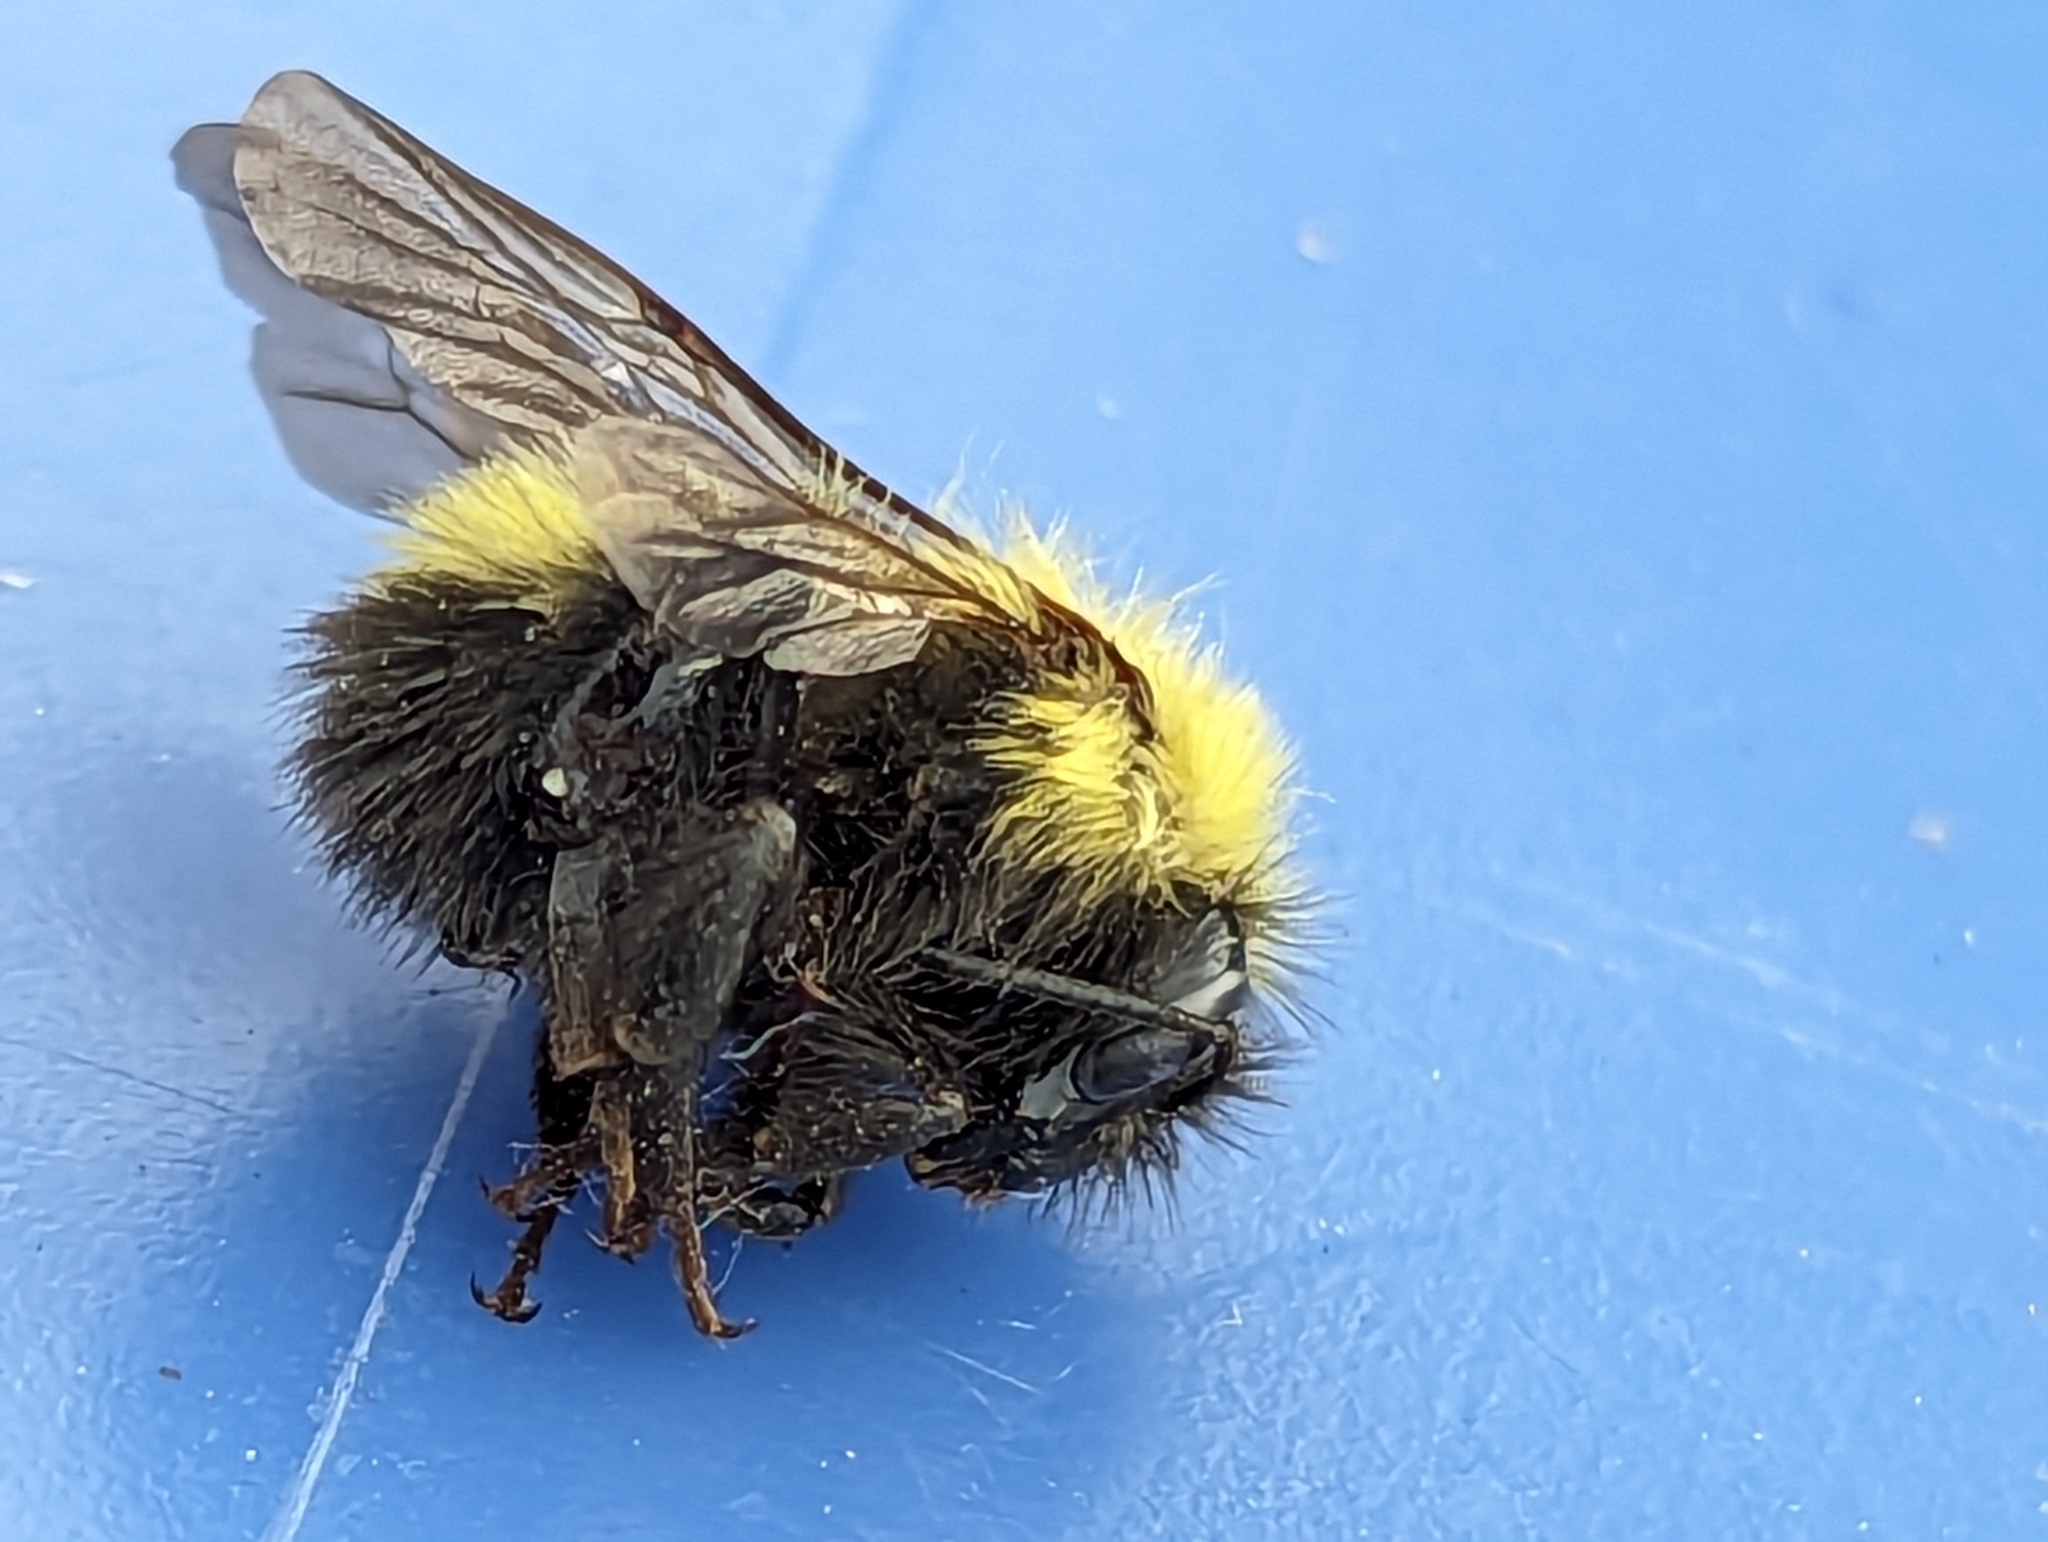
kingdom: Animalia
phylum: Arthropoda
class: Insecta
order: Hymenoptera
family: Apidae
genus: Bombus
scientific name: Bombus perplexus
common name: Confusing bumble bee
